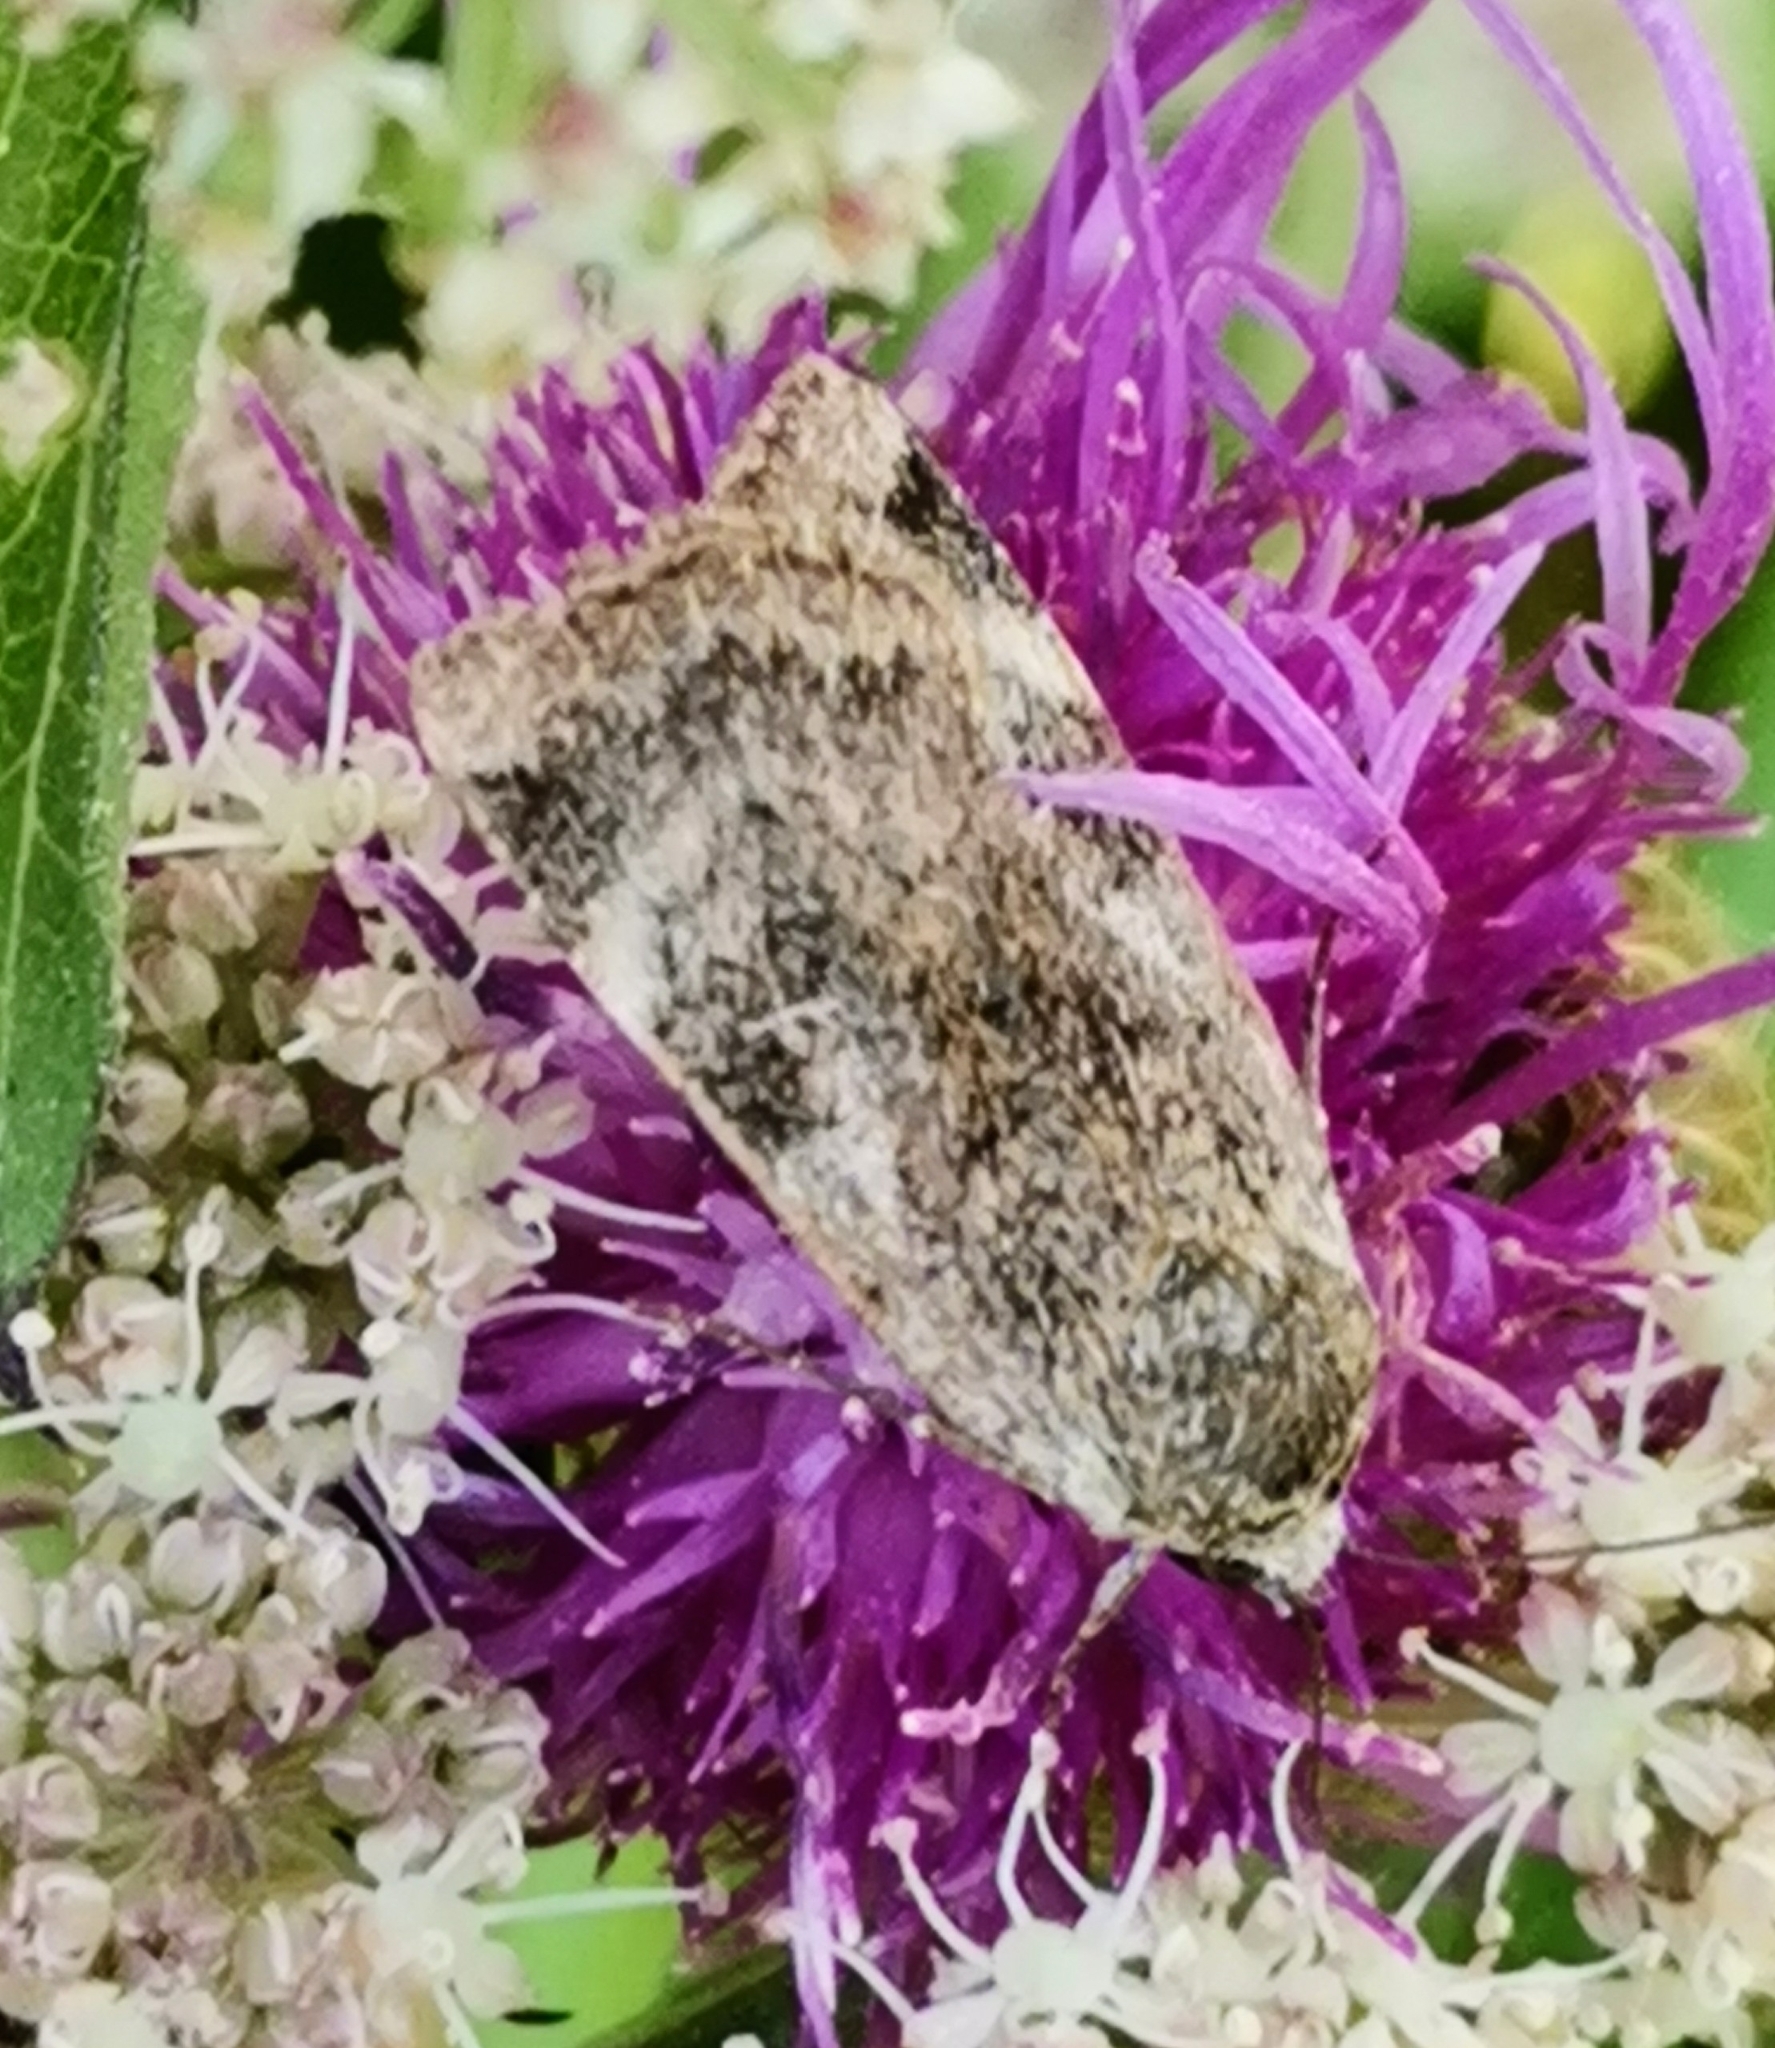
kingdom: Animalia
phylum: Arthropoda
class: Insecta
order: Lepidoptera
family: Noctuidae
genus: Cryptocala
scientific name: Cryptocala chardinyi
